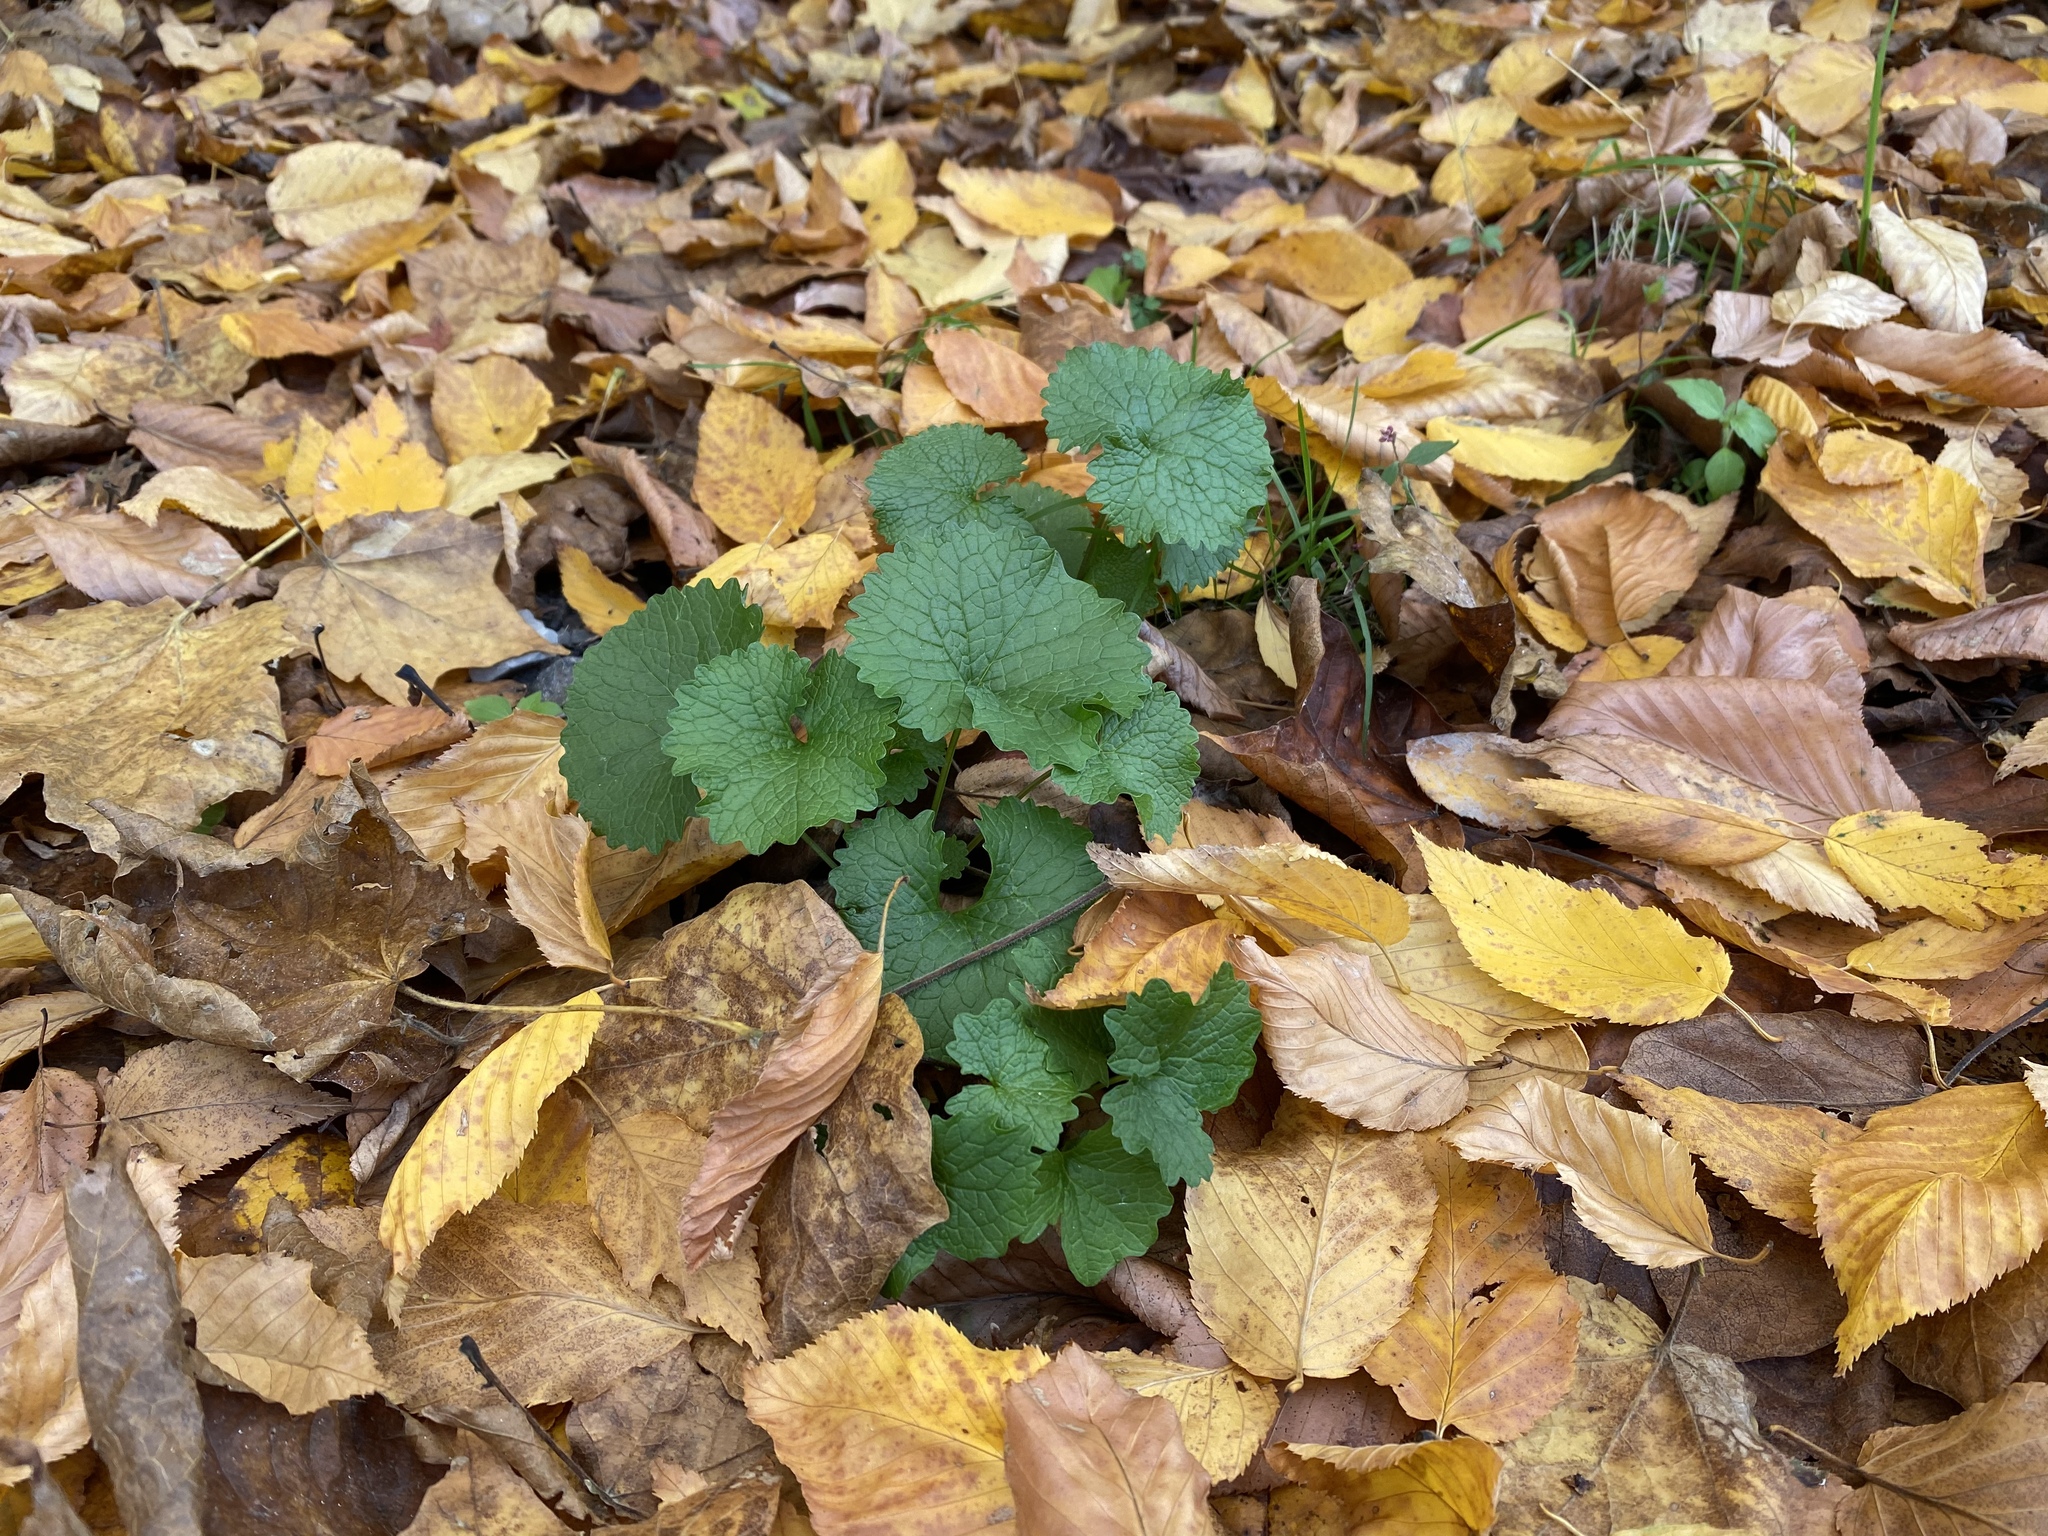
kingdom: Plantae
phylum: Tracheophyta
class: Magnoliopsida
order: Brassicales
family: Brassicaceae
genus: Alliaria
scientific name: Alliaria petiolata
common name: Garlic mustard
